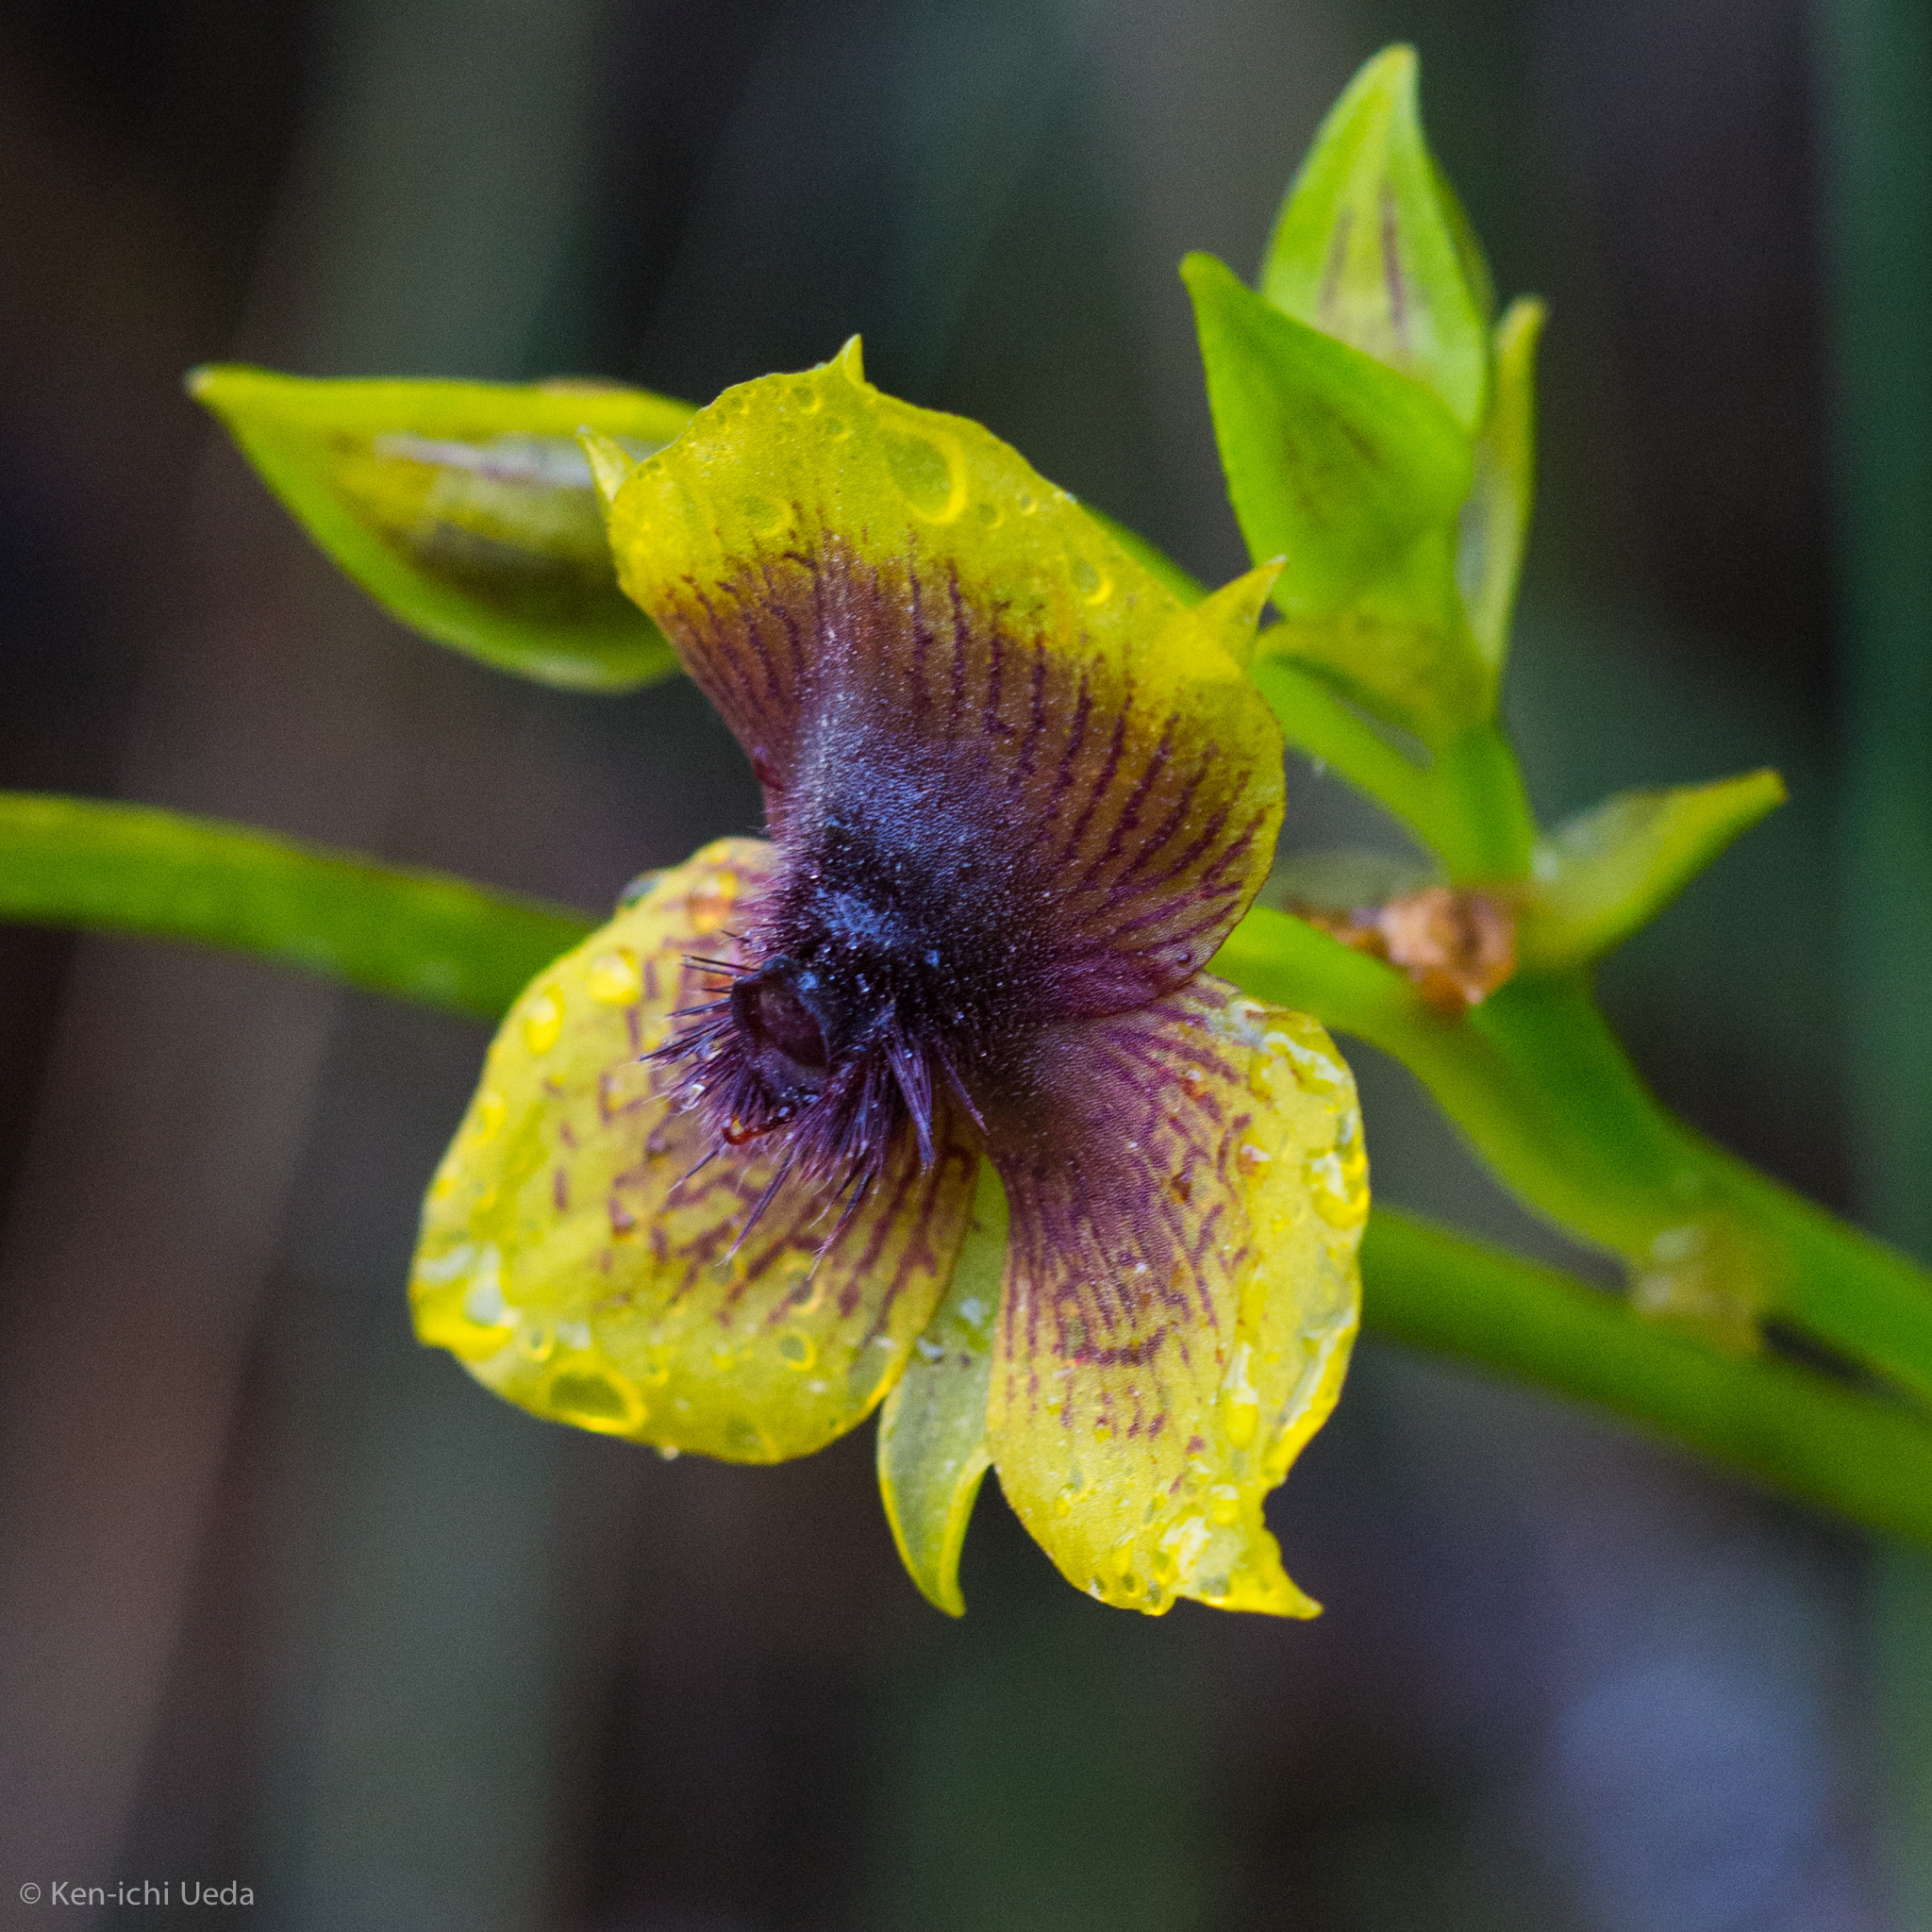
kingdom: Plantae
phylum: Tracheophyta
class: Liliopsida
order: Asparagales
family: Orchidaceae
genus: Telipogon
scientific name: Telipogon berthae
